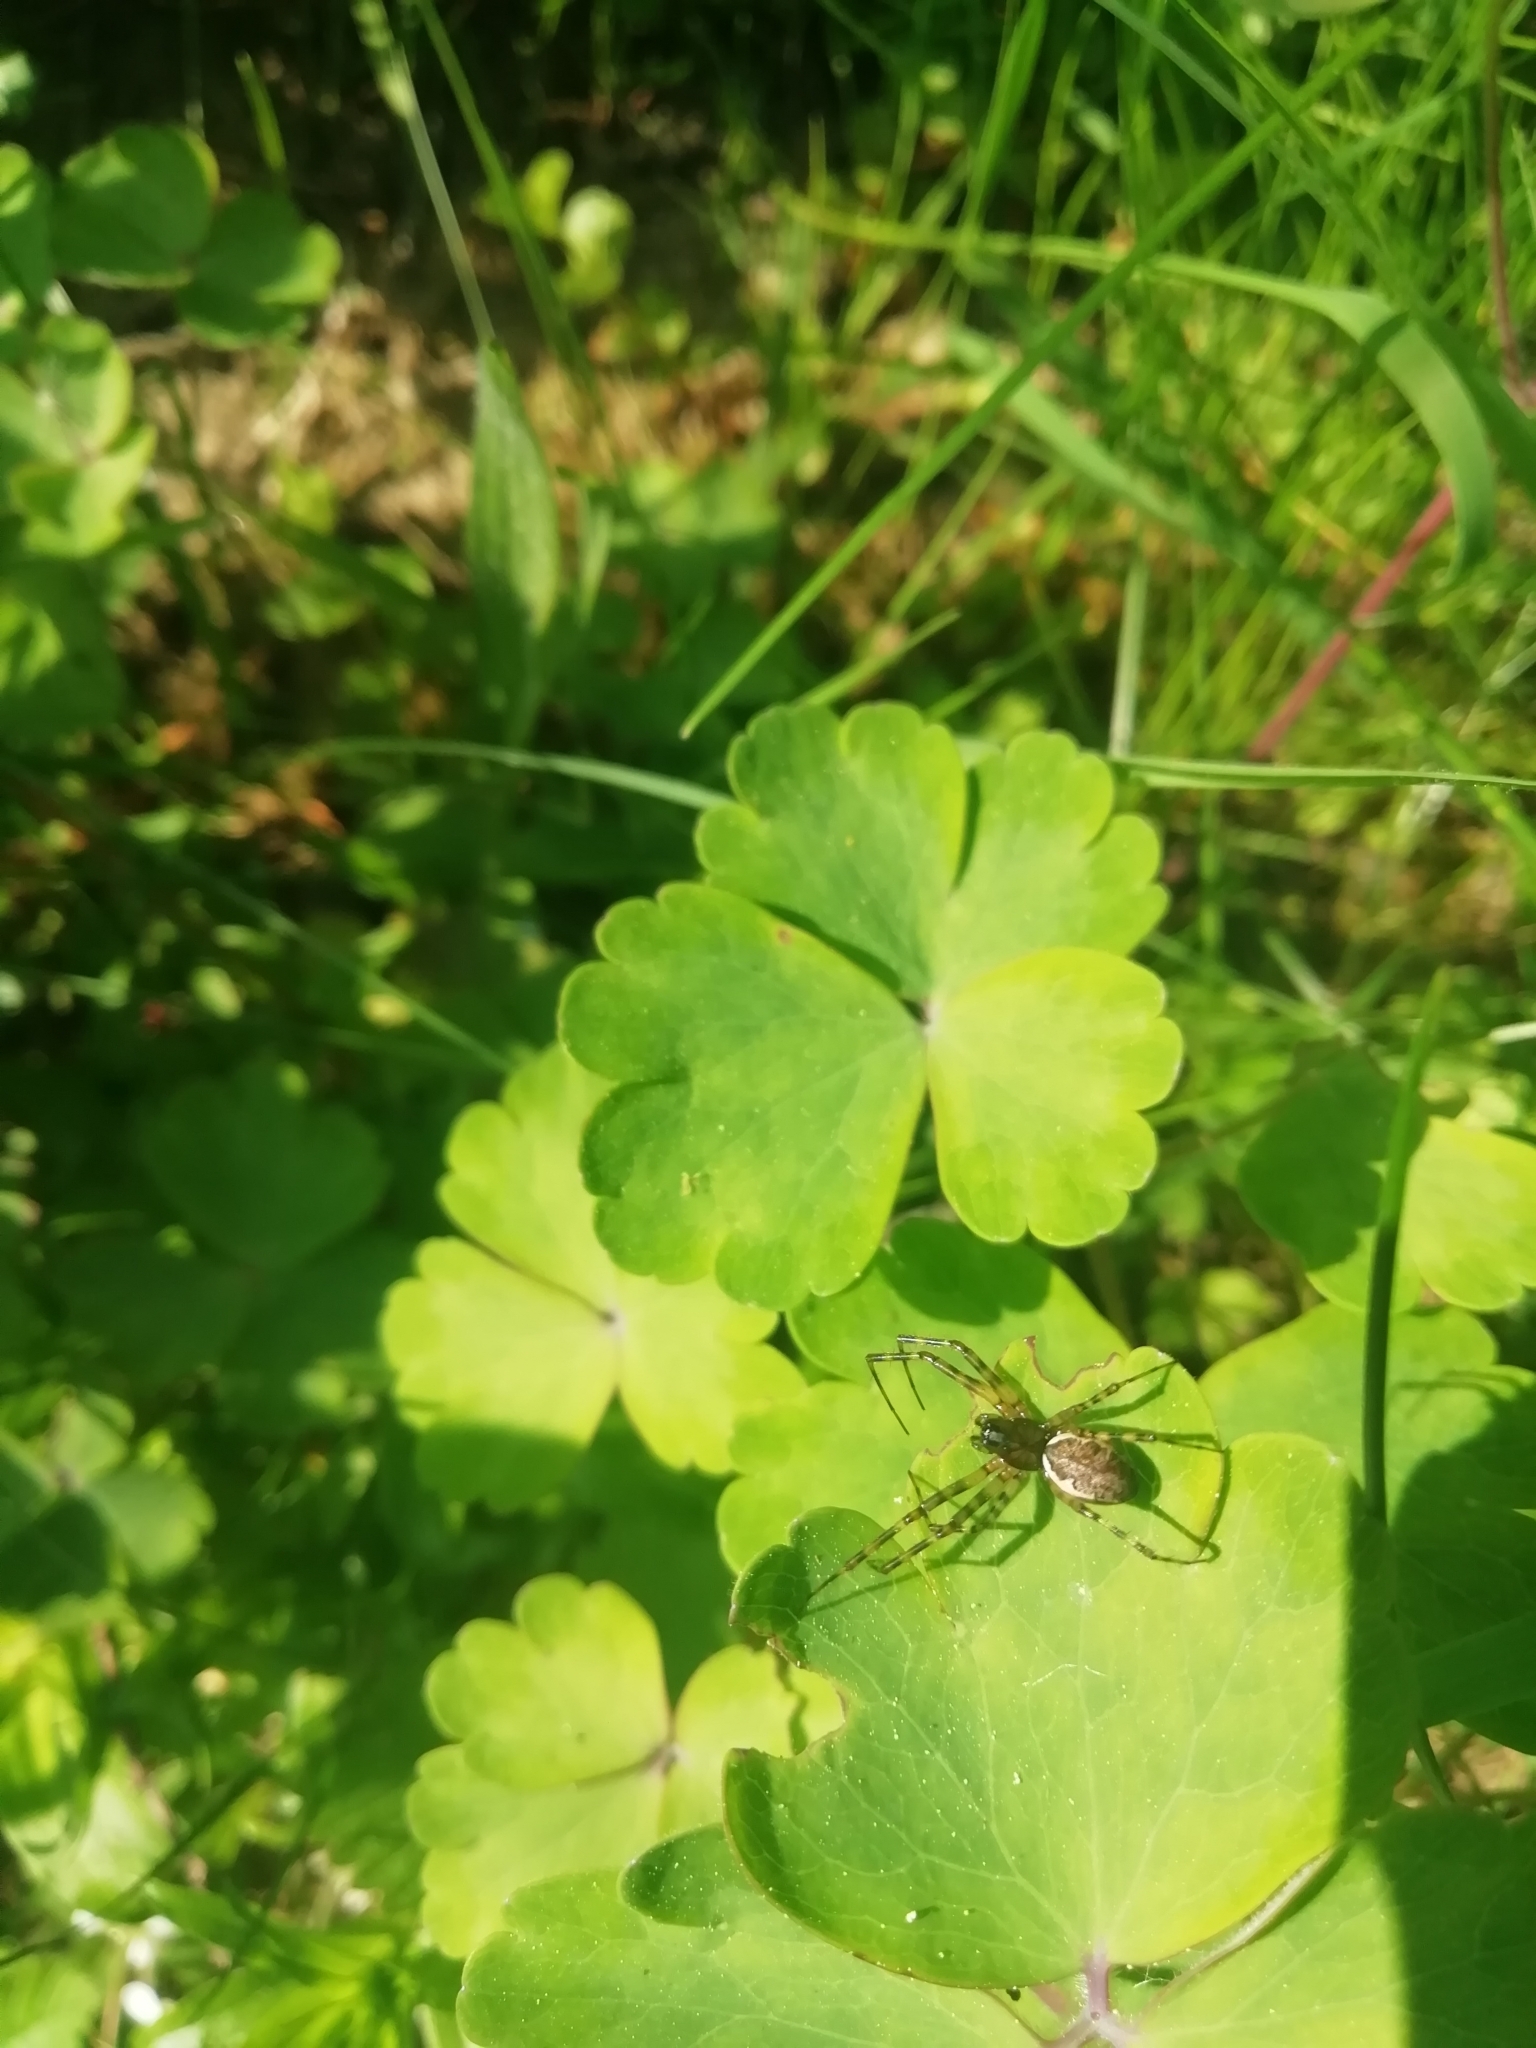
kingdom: Animalia
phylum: Arthropoda
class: Arachnida
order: Araneae
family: Linyphiidae
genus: Neriene
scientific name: Neriene montana
